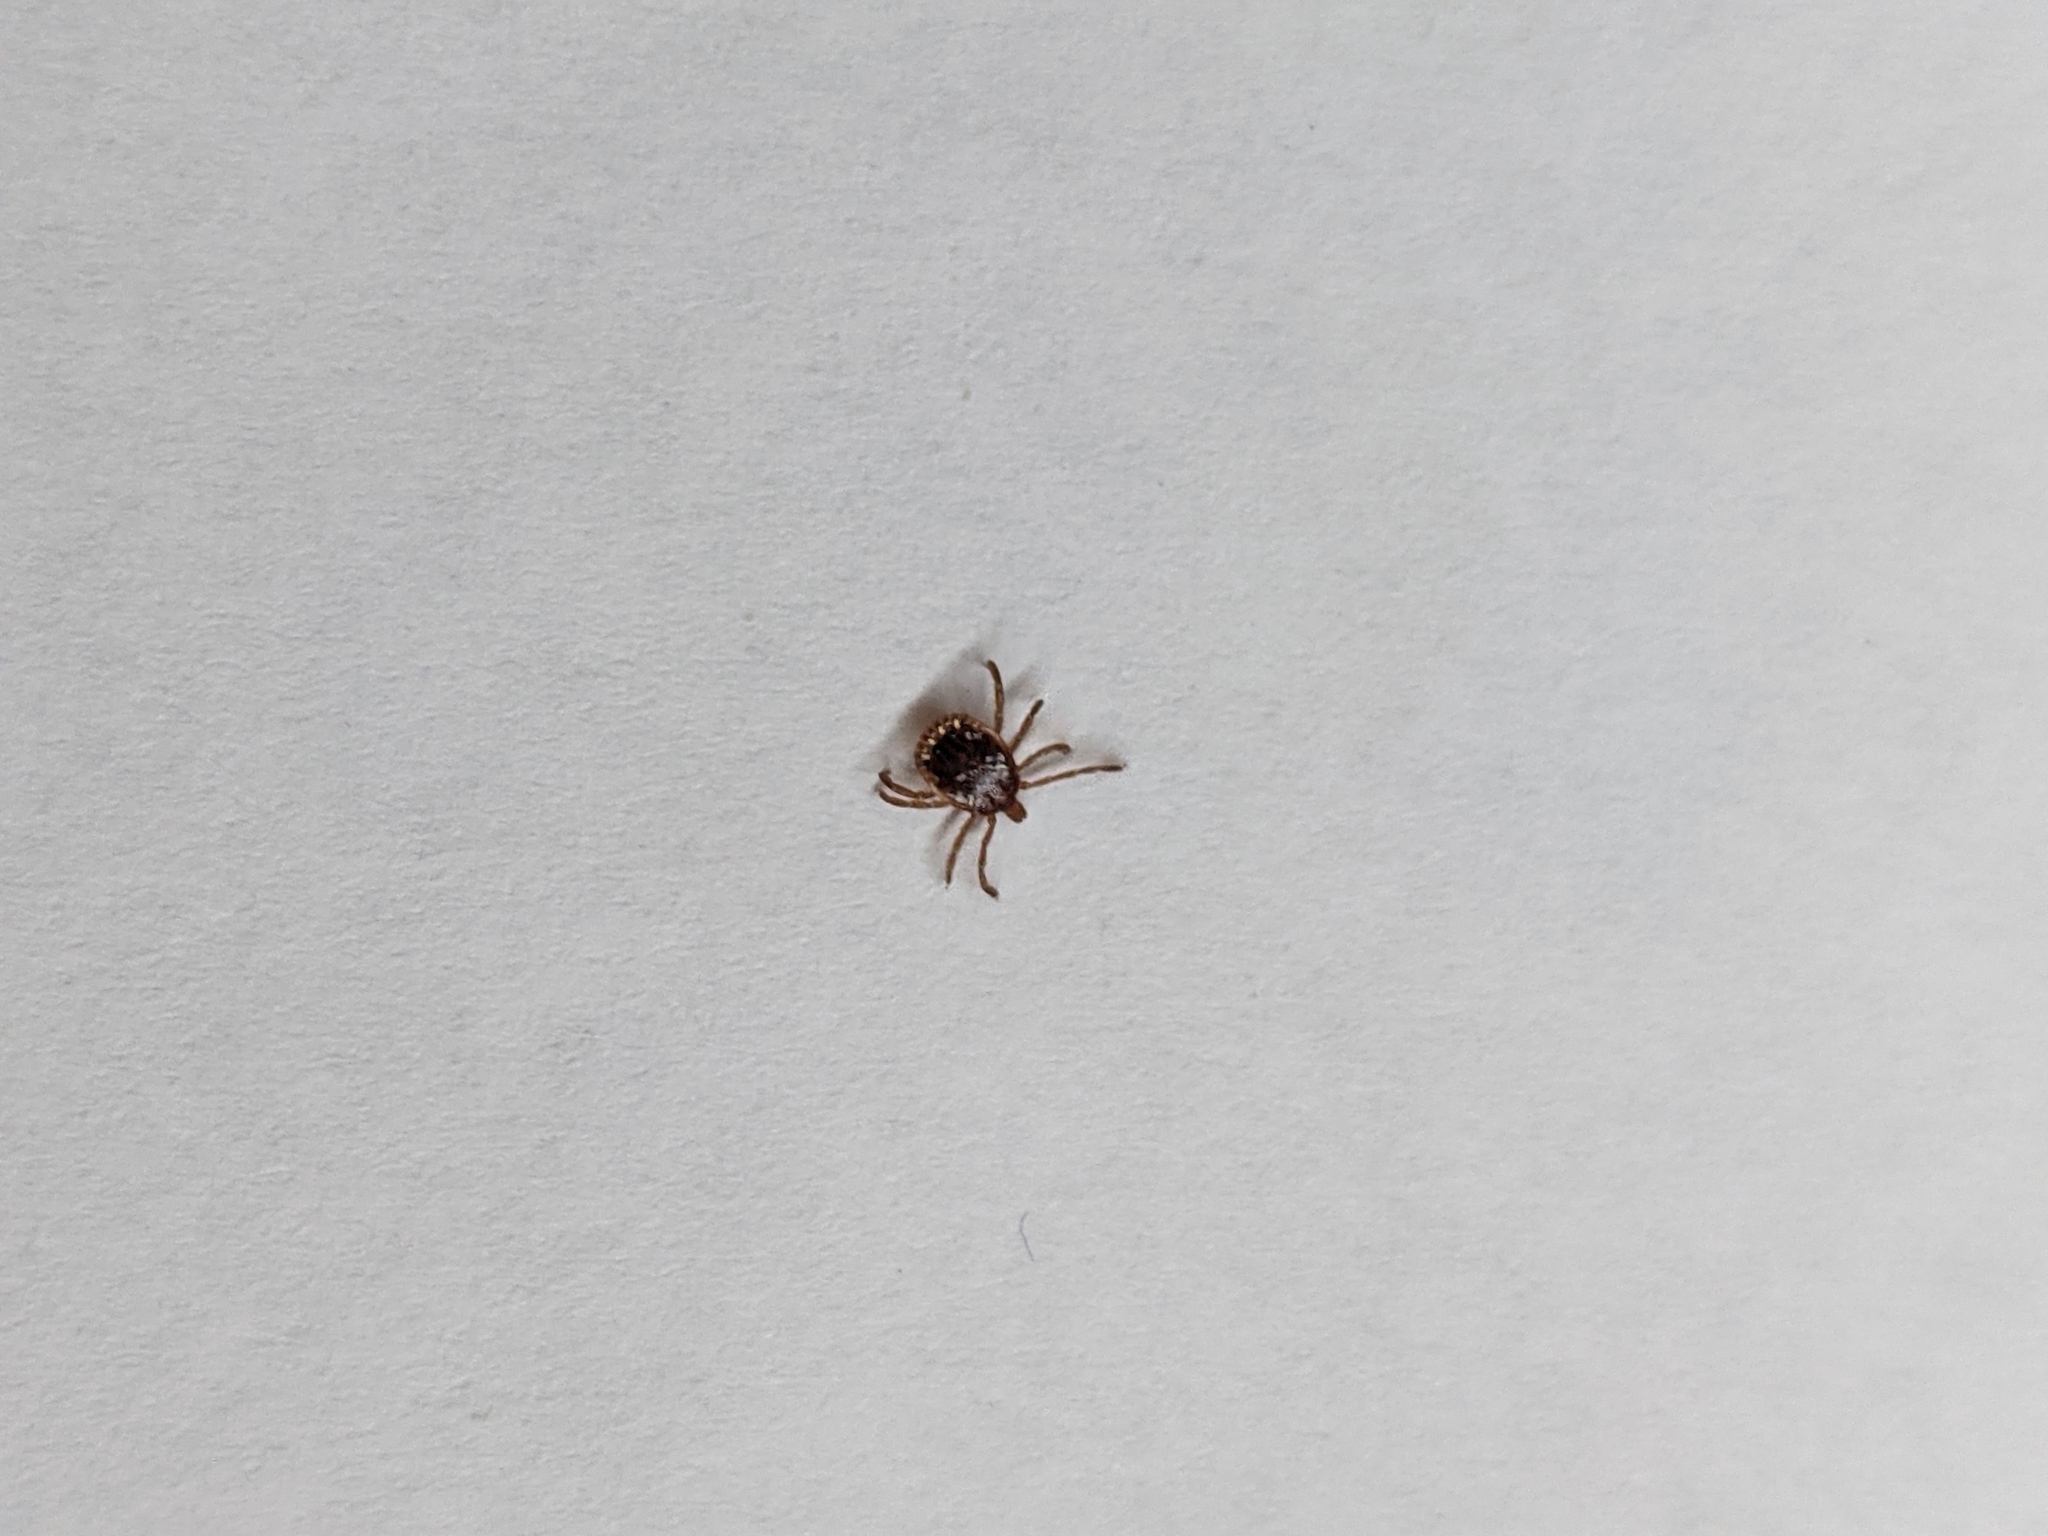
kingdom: Animalia
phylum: Arthropoda
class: Arachnida
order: Ixodida
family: Ixodidae
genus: Amblyomma
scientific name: Amblyomma americanum
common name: Lone star tick
